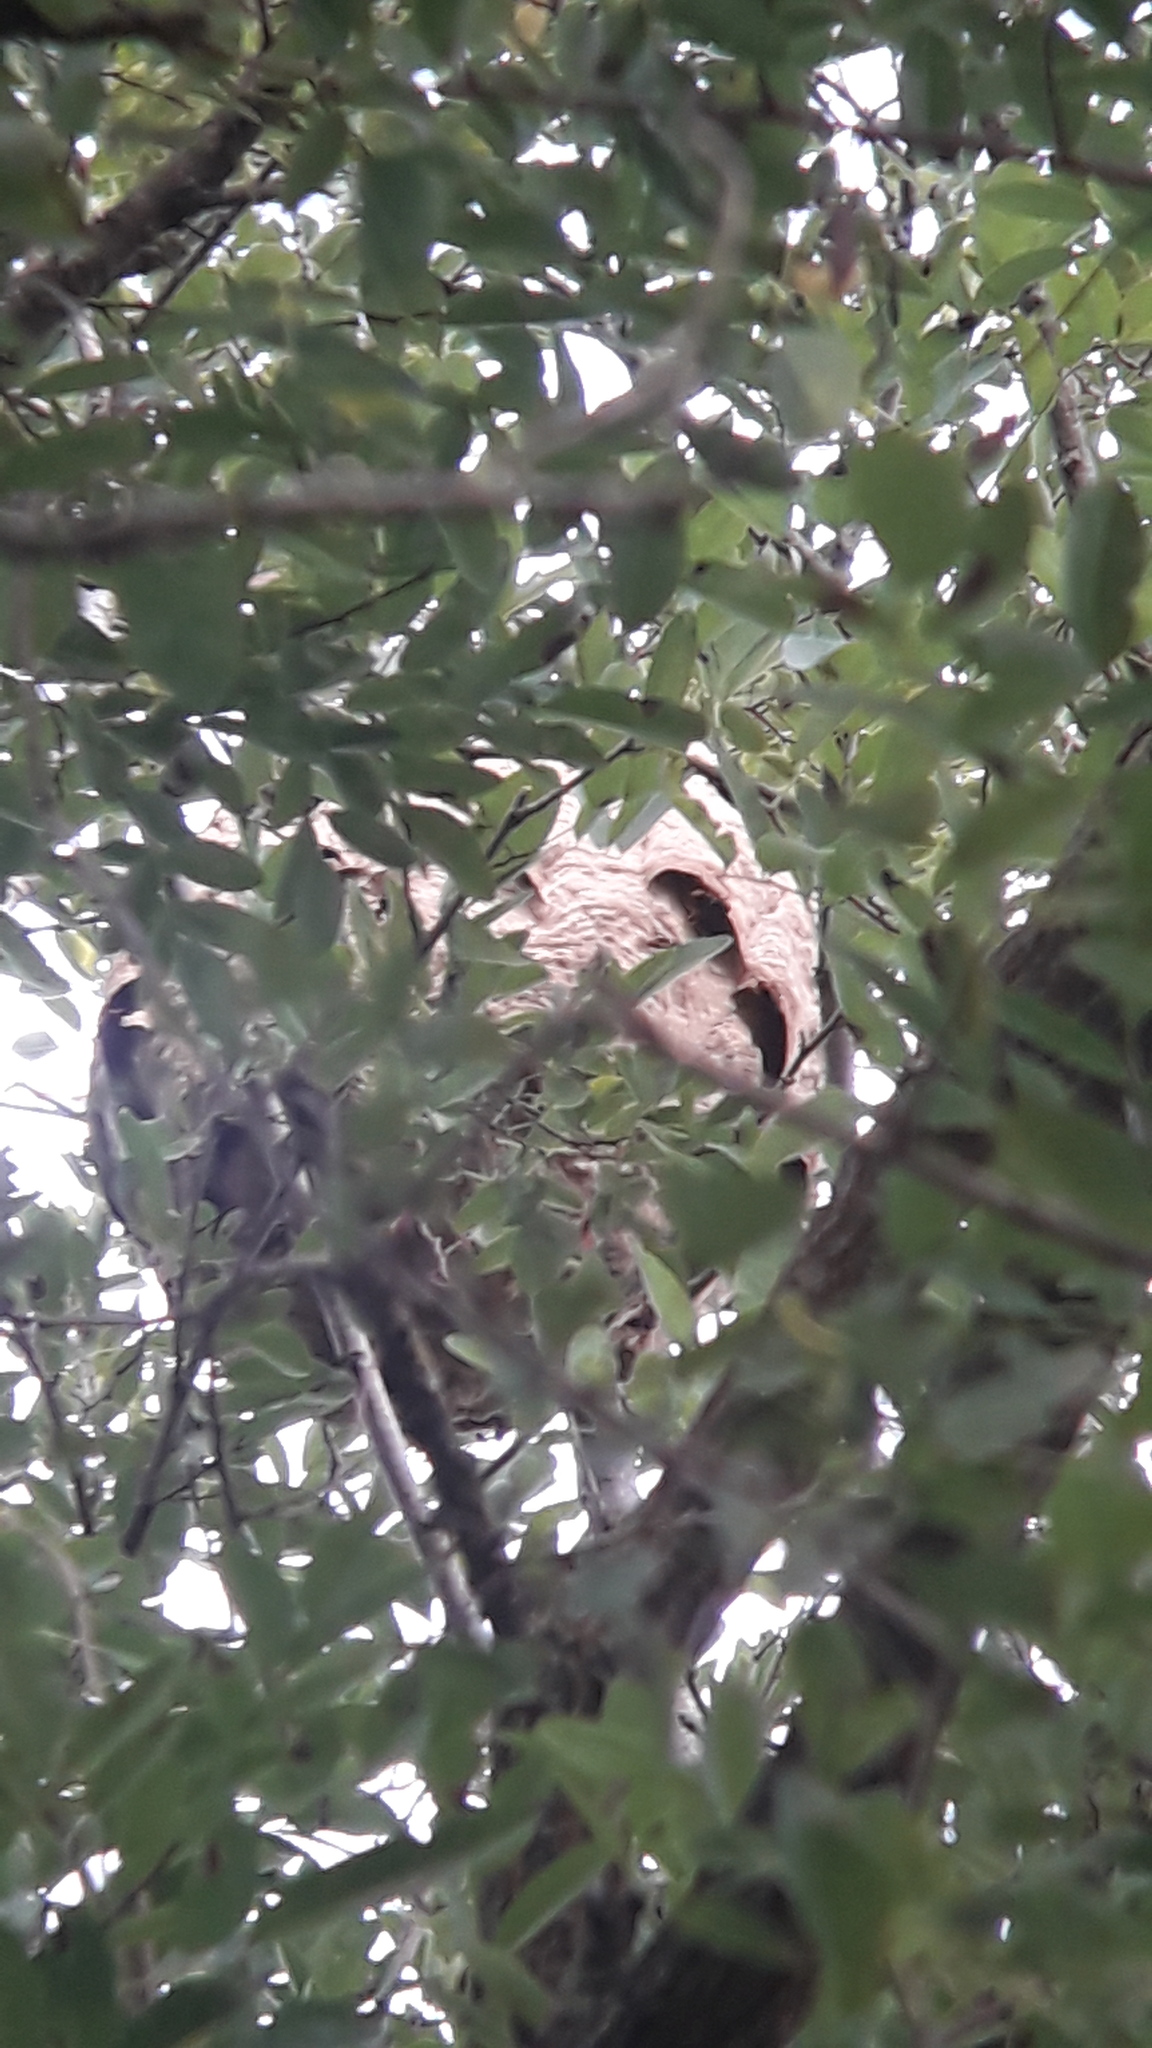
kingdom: Animalia
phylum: Arthropoda
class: Insecta
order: Hymenoptera
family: Vespidae
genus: Vespa
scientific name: Vespa velutina
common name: Asian hornet
